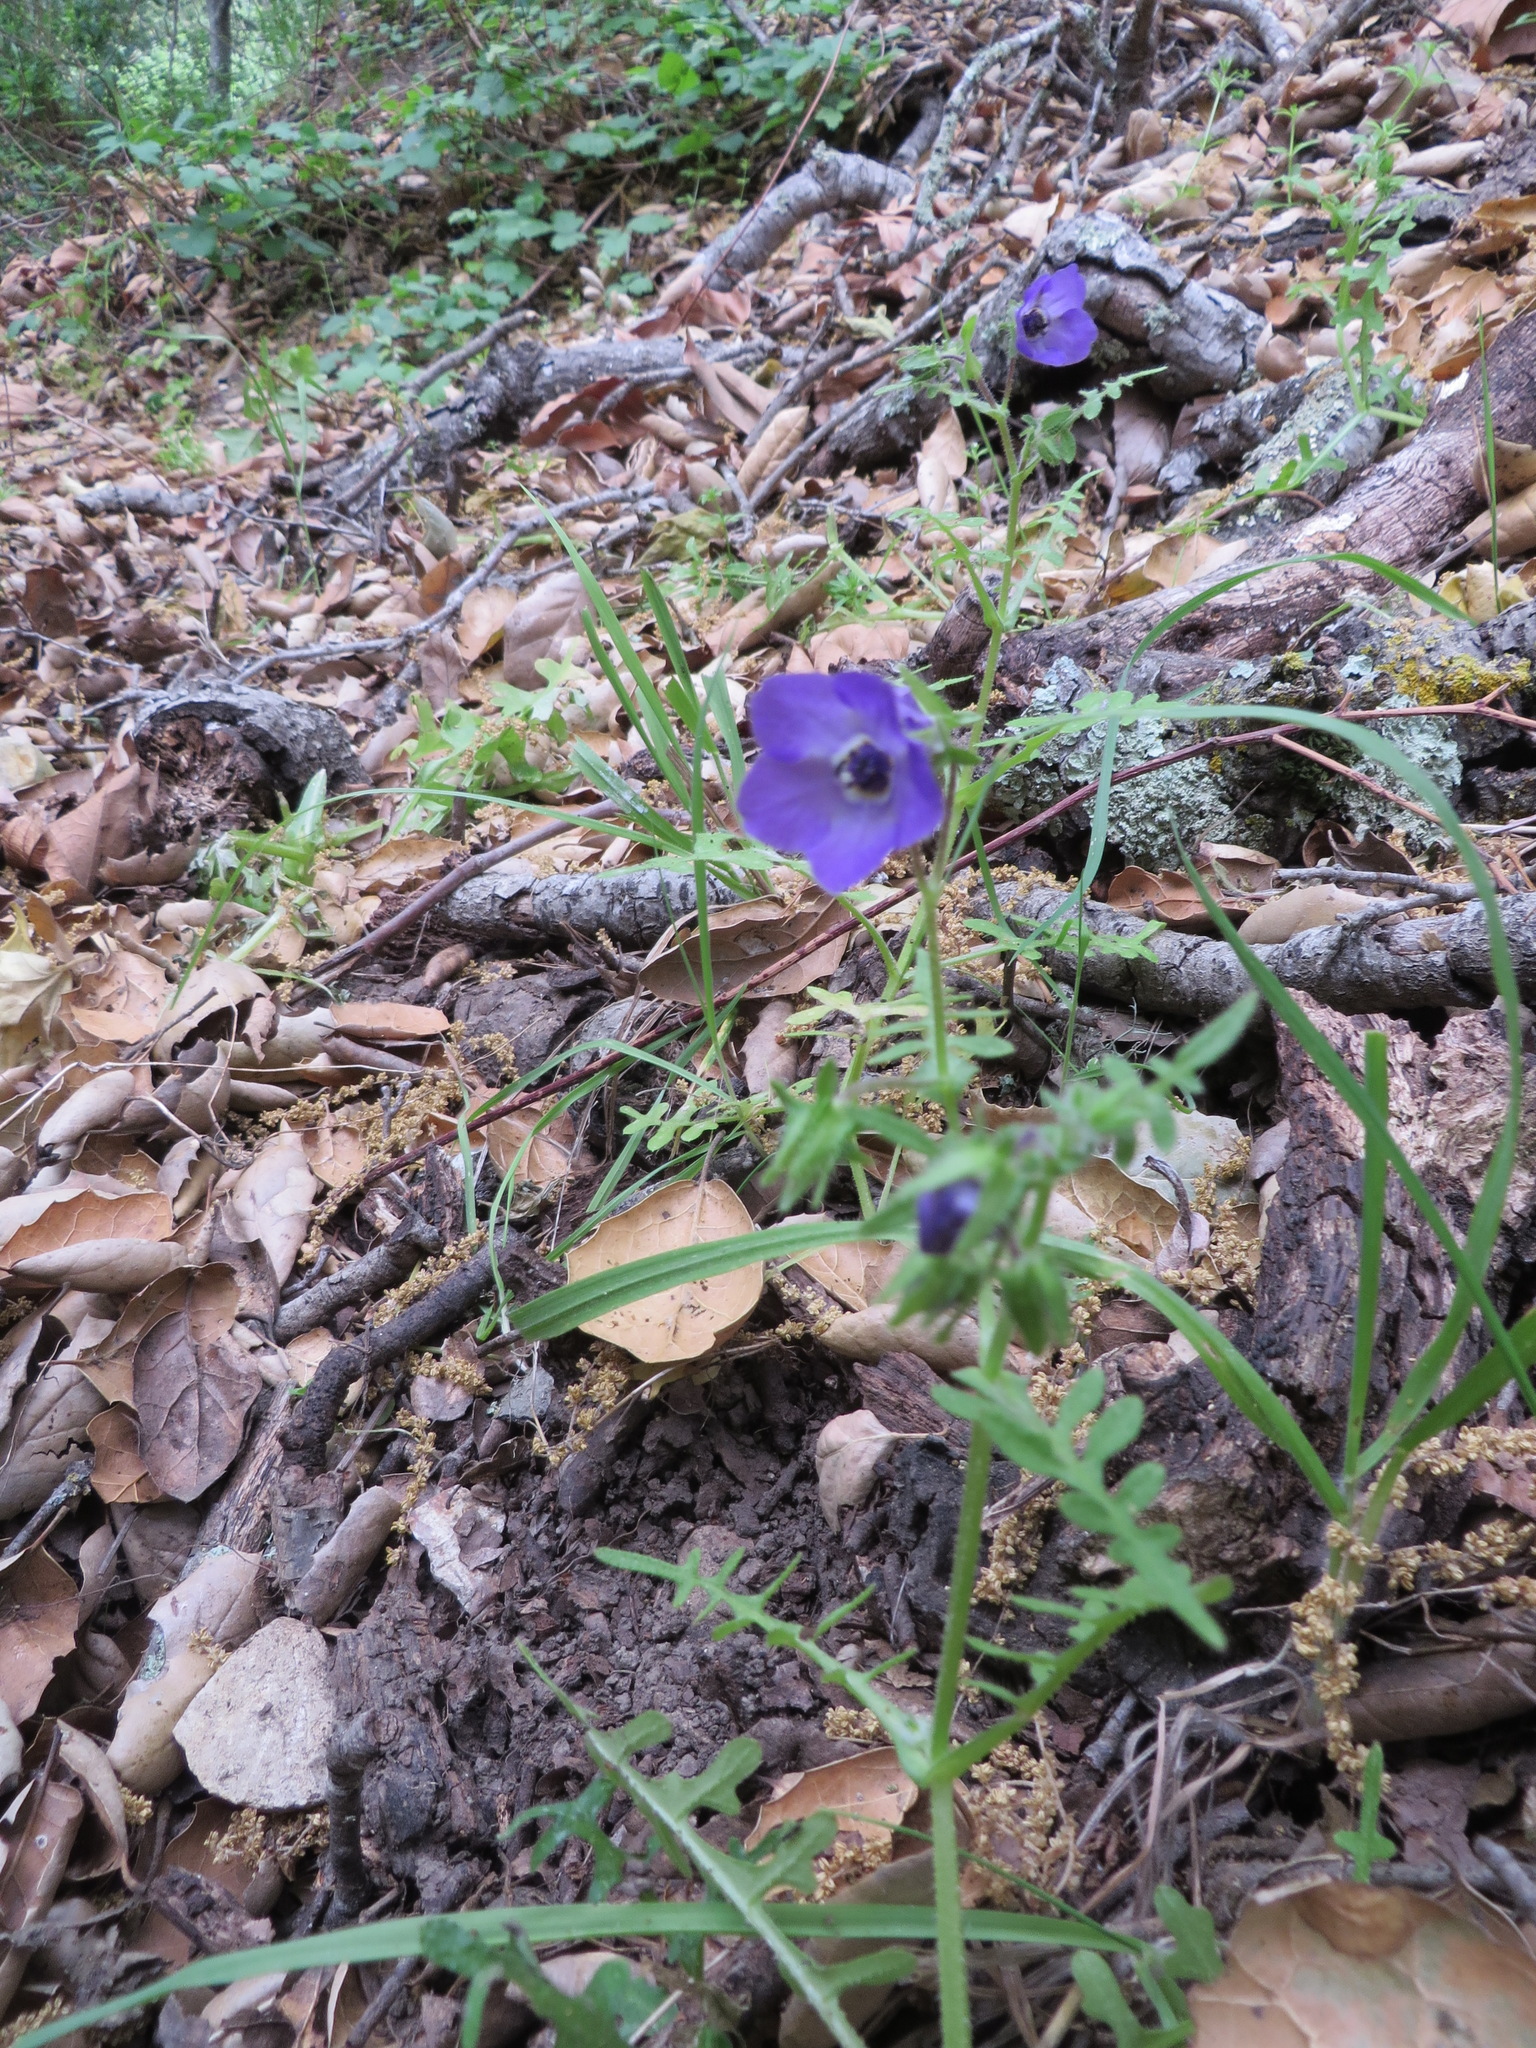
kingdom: Plantae
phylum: Tracheophyta
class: Magnoliopsida
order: Boraginales
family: Hydrophyllaceae
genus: Pholistoma
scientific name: Pholistoma auritum
